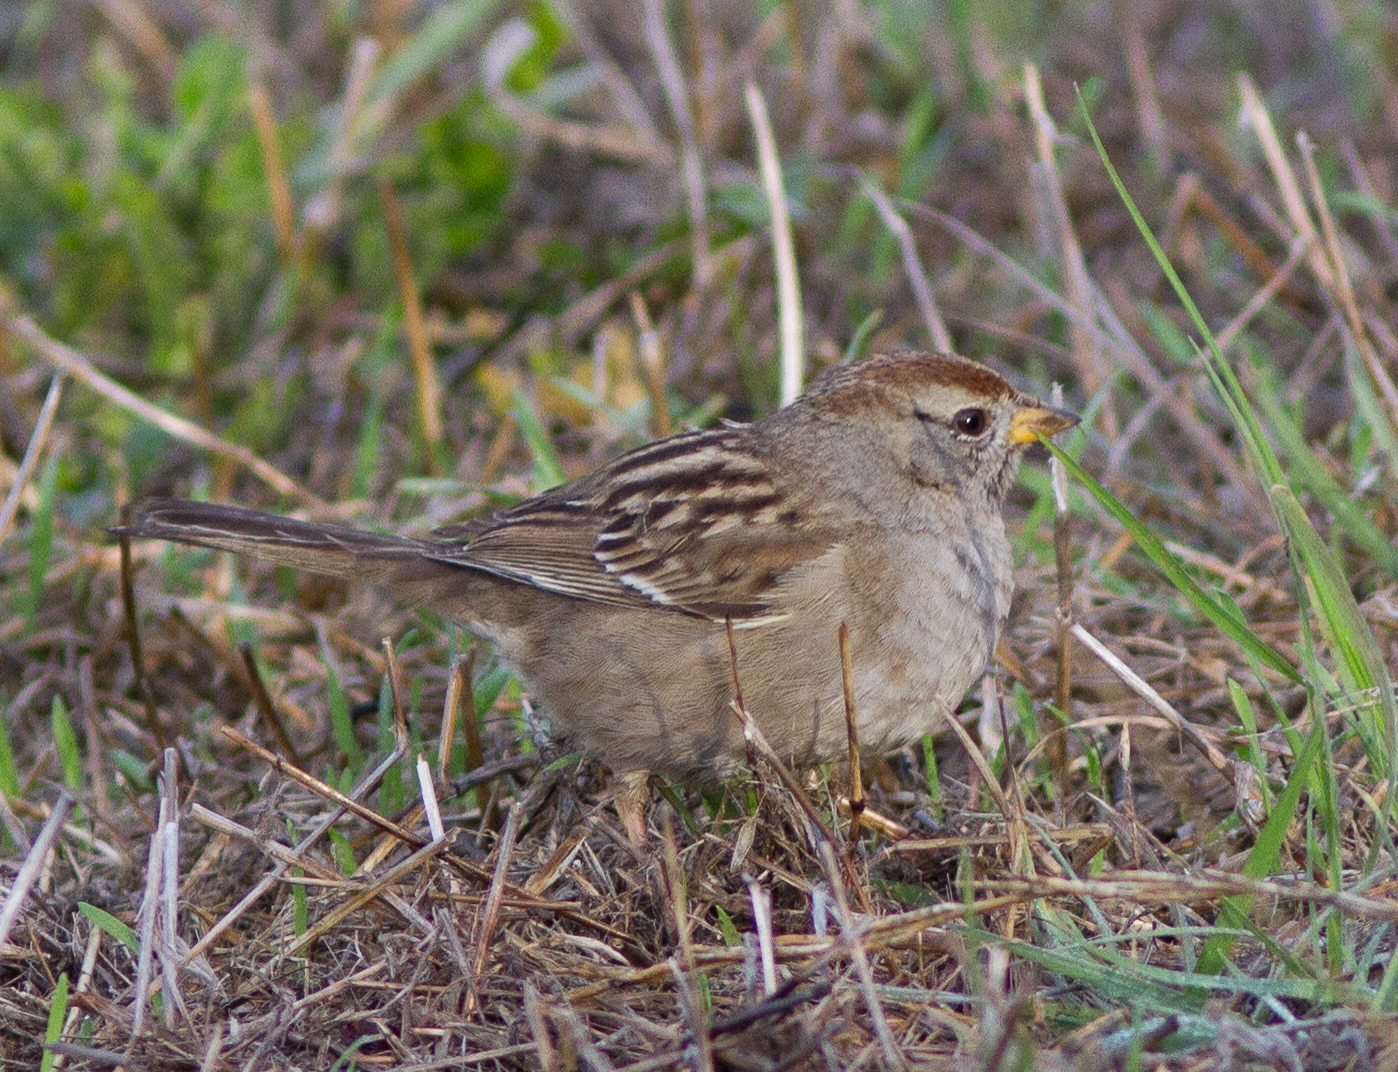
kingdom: Animalia
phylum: Chordata
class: Aves
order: Passeriformes
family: Passerellidae
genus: Zonotrichia
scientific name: Zonotrichia leucophrys
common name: White-crowned sparrow
